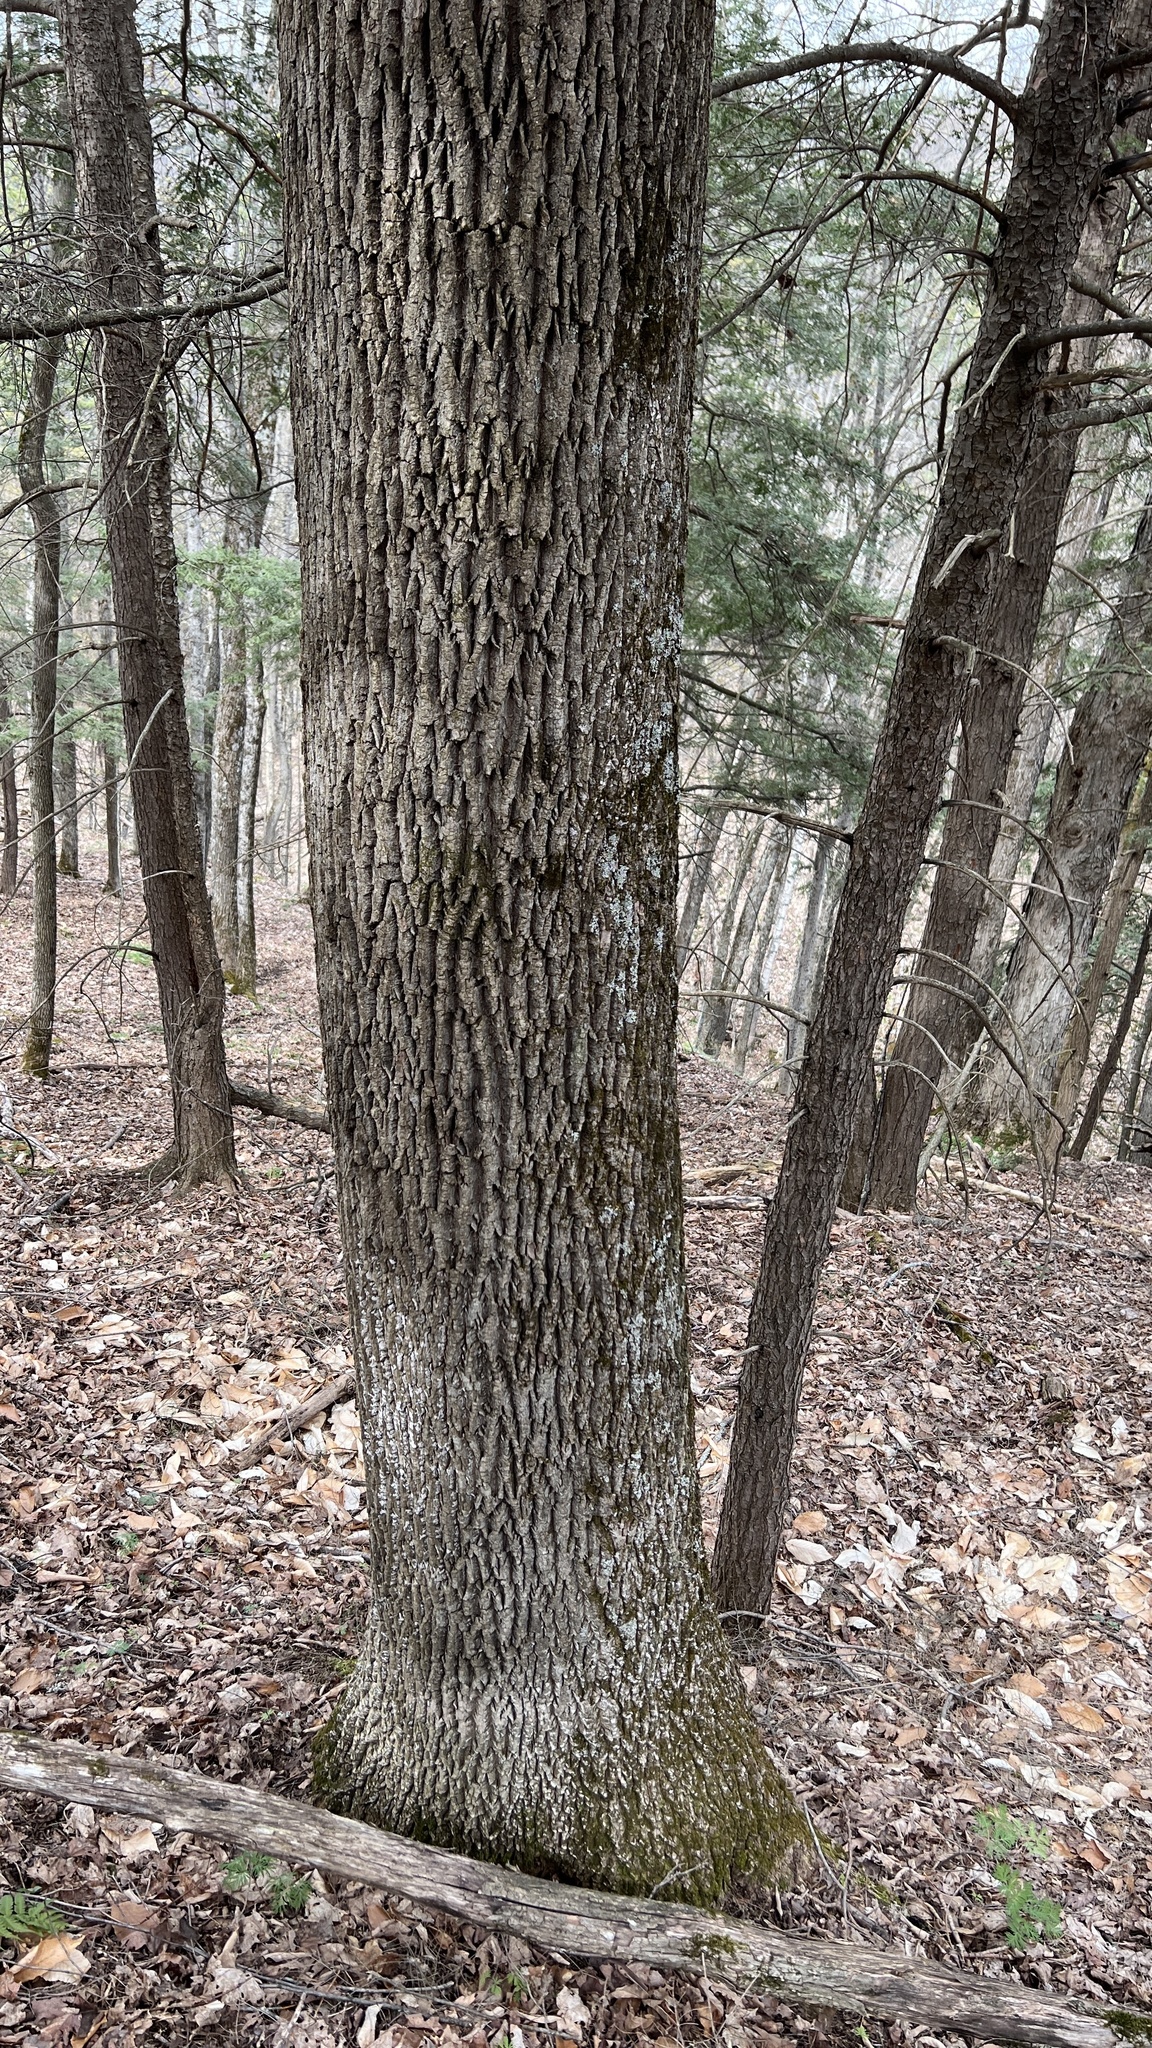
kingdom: Plantae
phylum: Tracheophyta
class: Magnoliopsida
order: Lamiales
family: Oleaceae
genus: Fraxinus
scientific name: Fraxinus americana
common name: White ash
